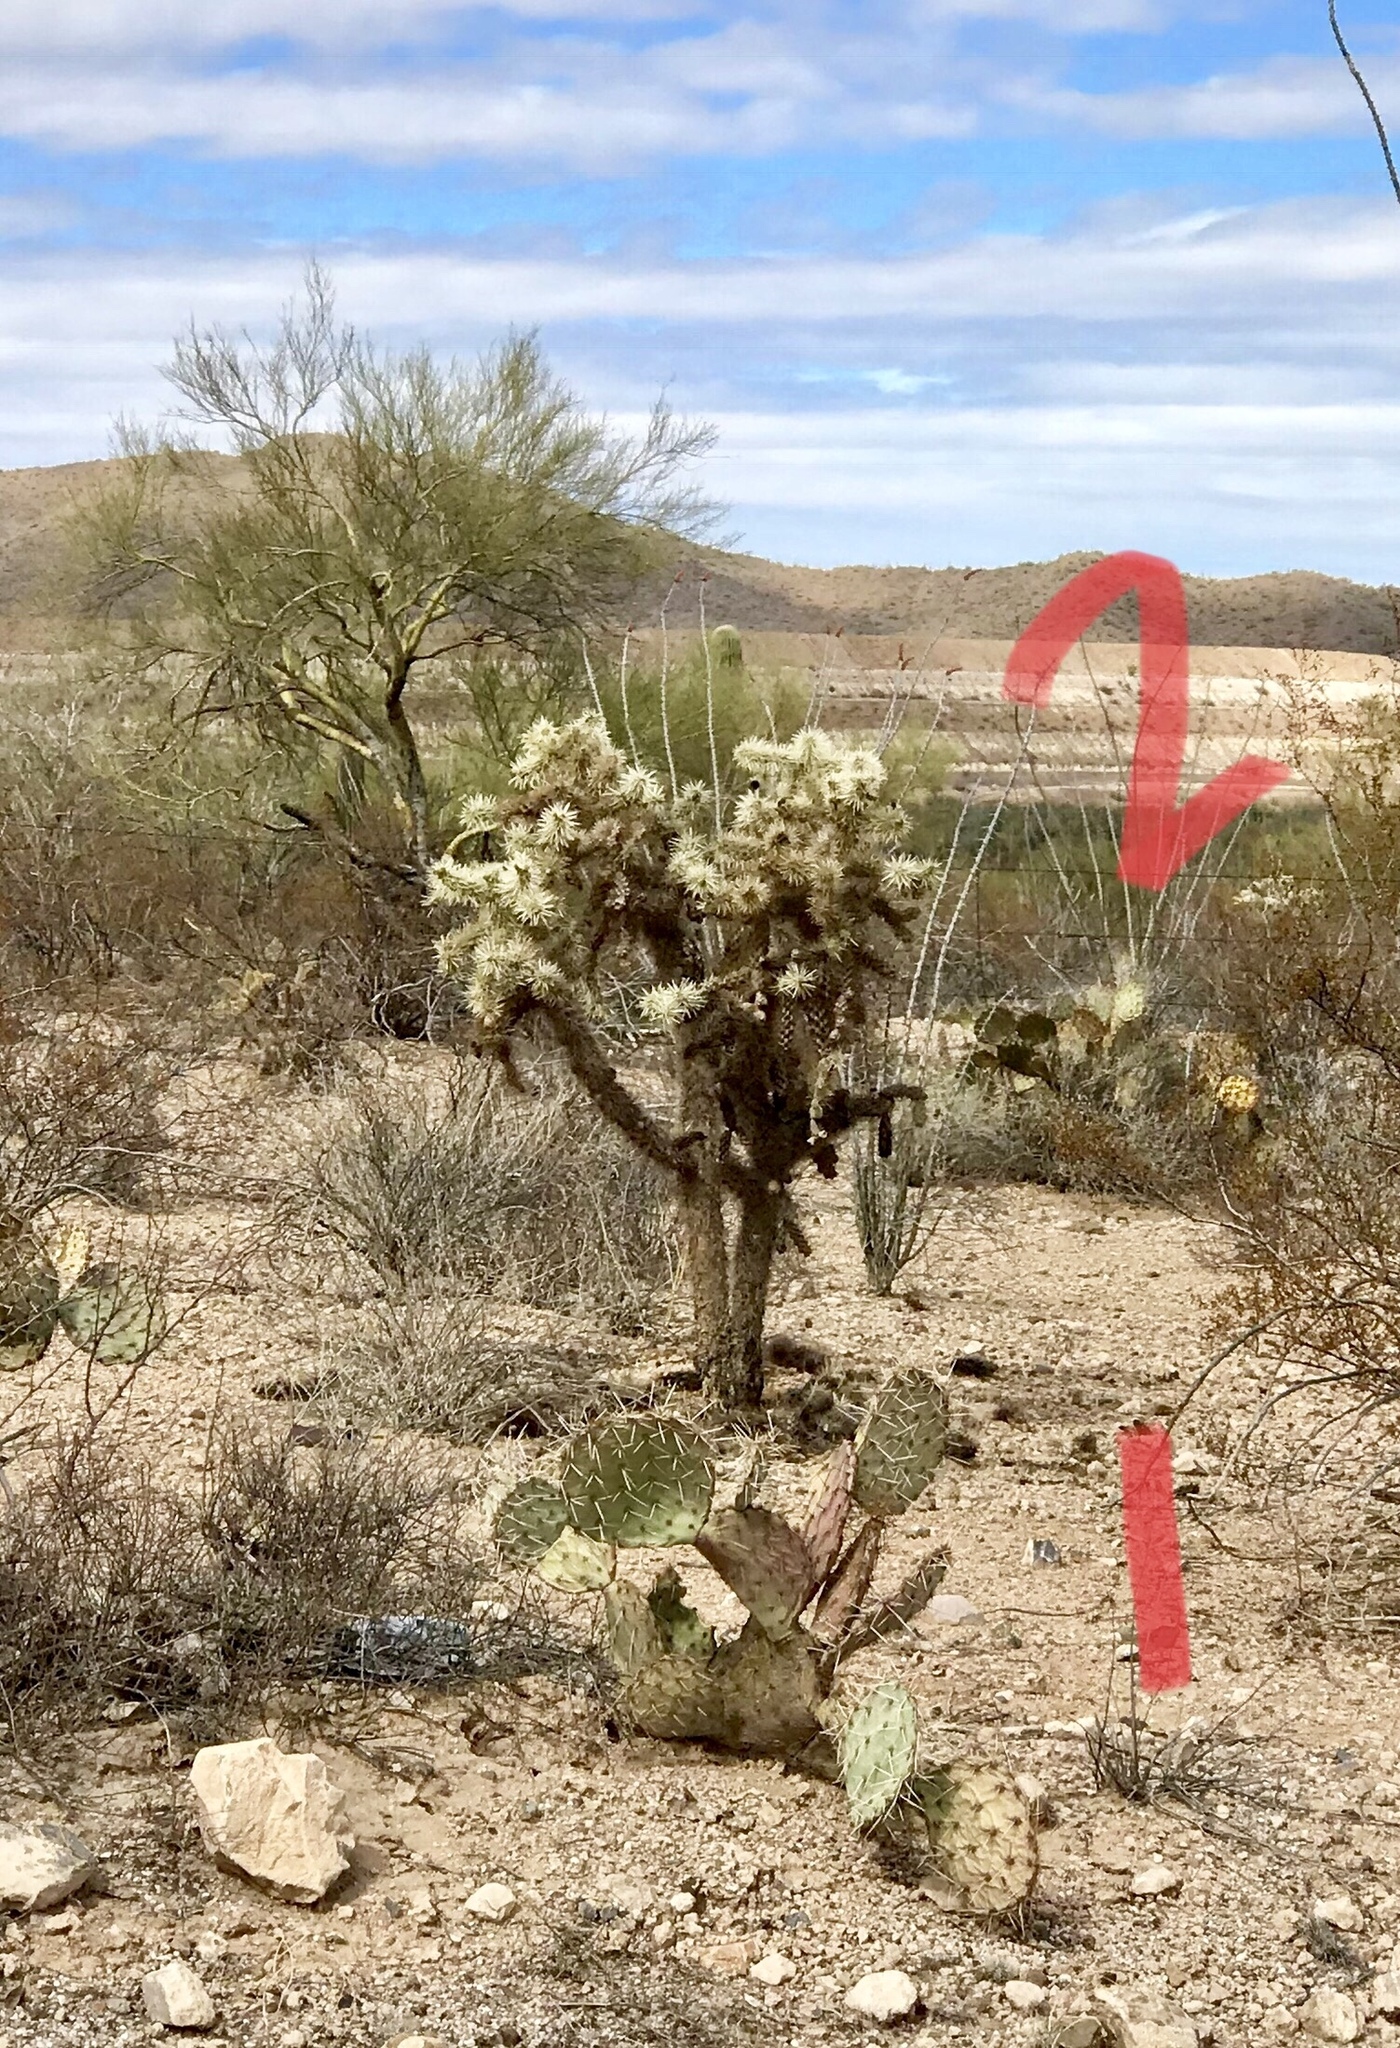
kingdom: Plantae
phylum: Tracheophyta
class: Magnoliopsida
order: Caryophyllales
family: Cactaceae
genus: Opuntia
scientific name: Opuntia engelmannii
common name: Cactus-apple
